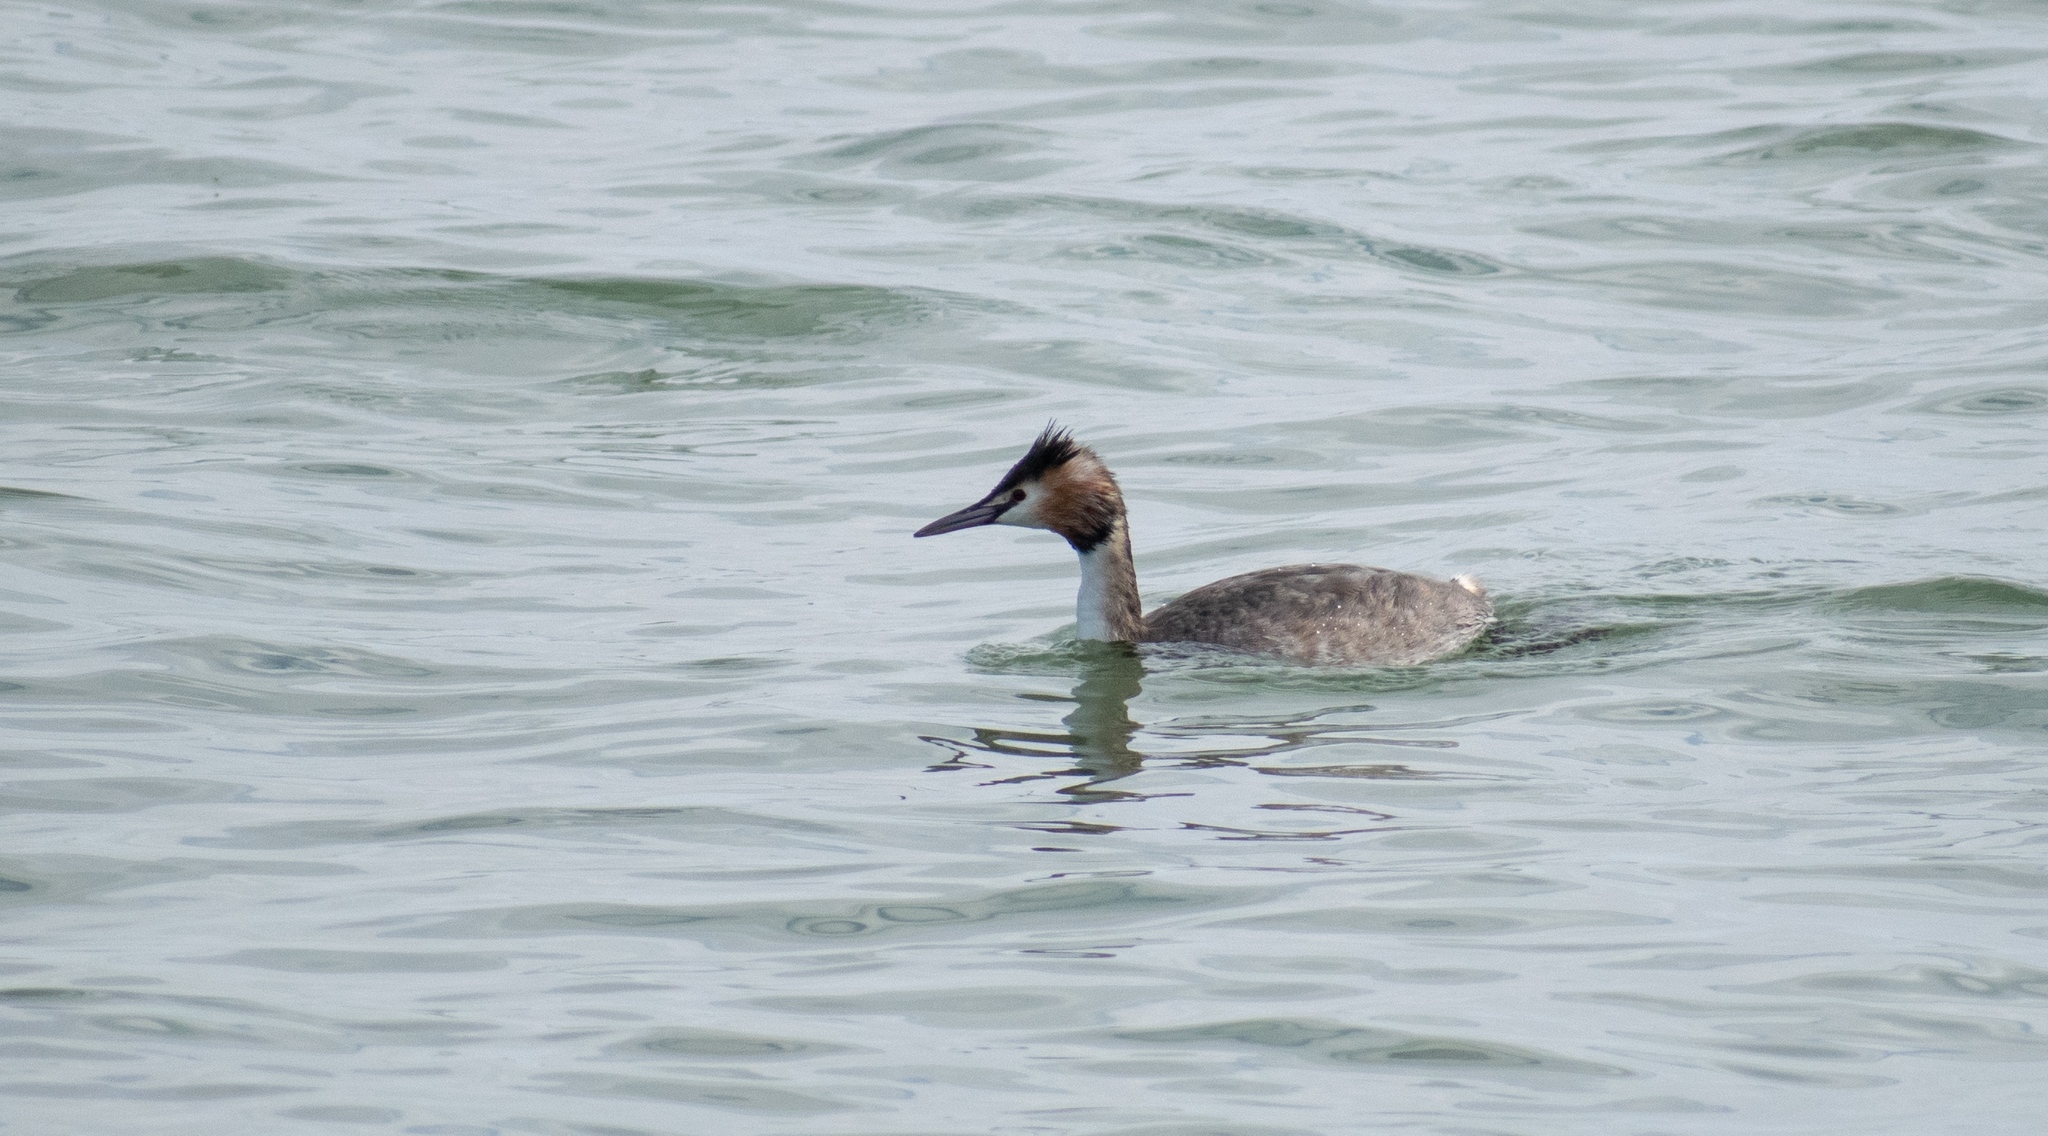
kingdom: Animalia
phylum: Chordata
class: Aves
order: Podicipediformes
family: Podicipedidae
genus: Podiceps
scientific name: Podiceps cristatus
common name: Great crested grebe
